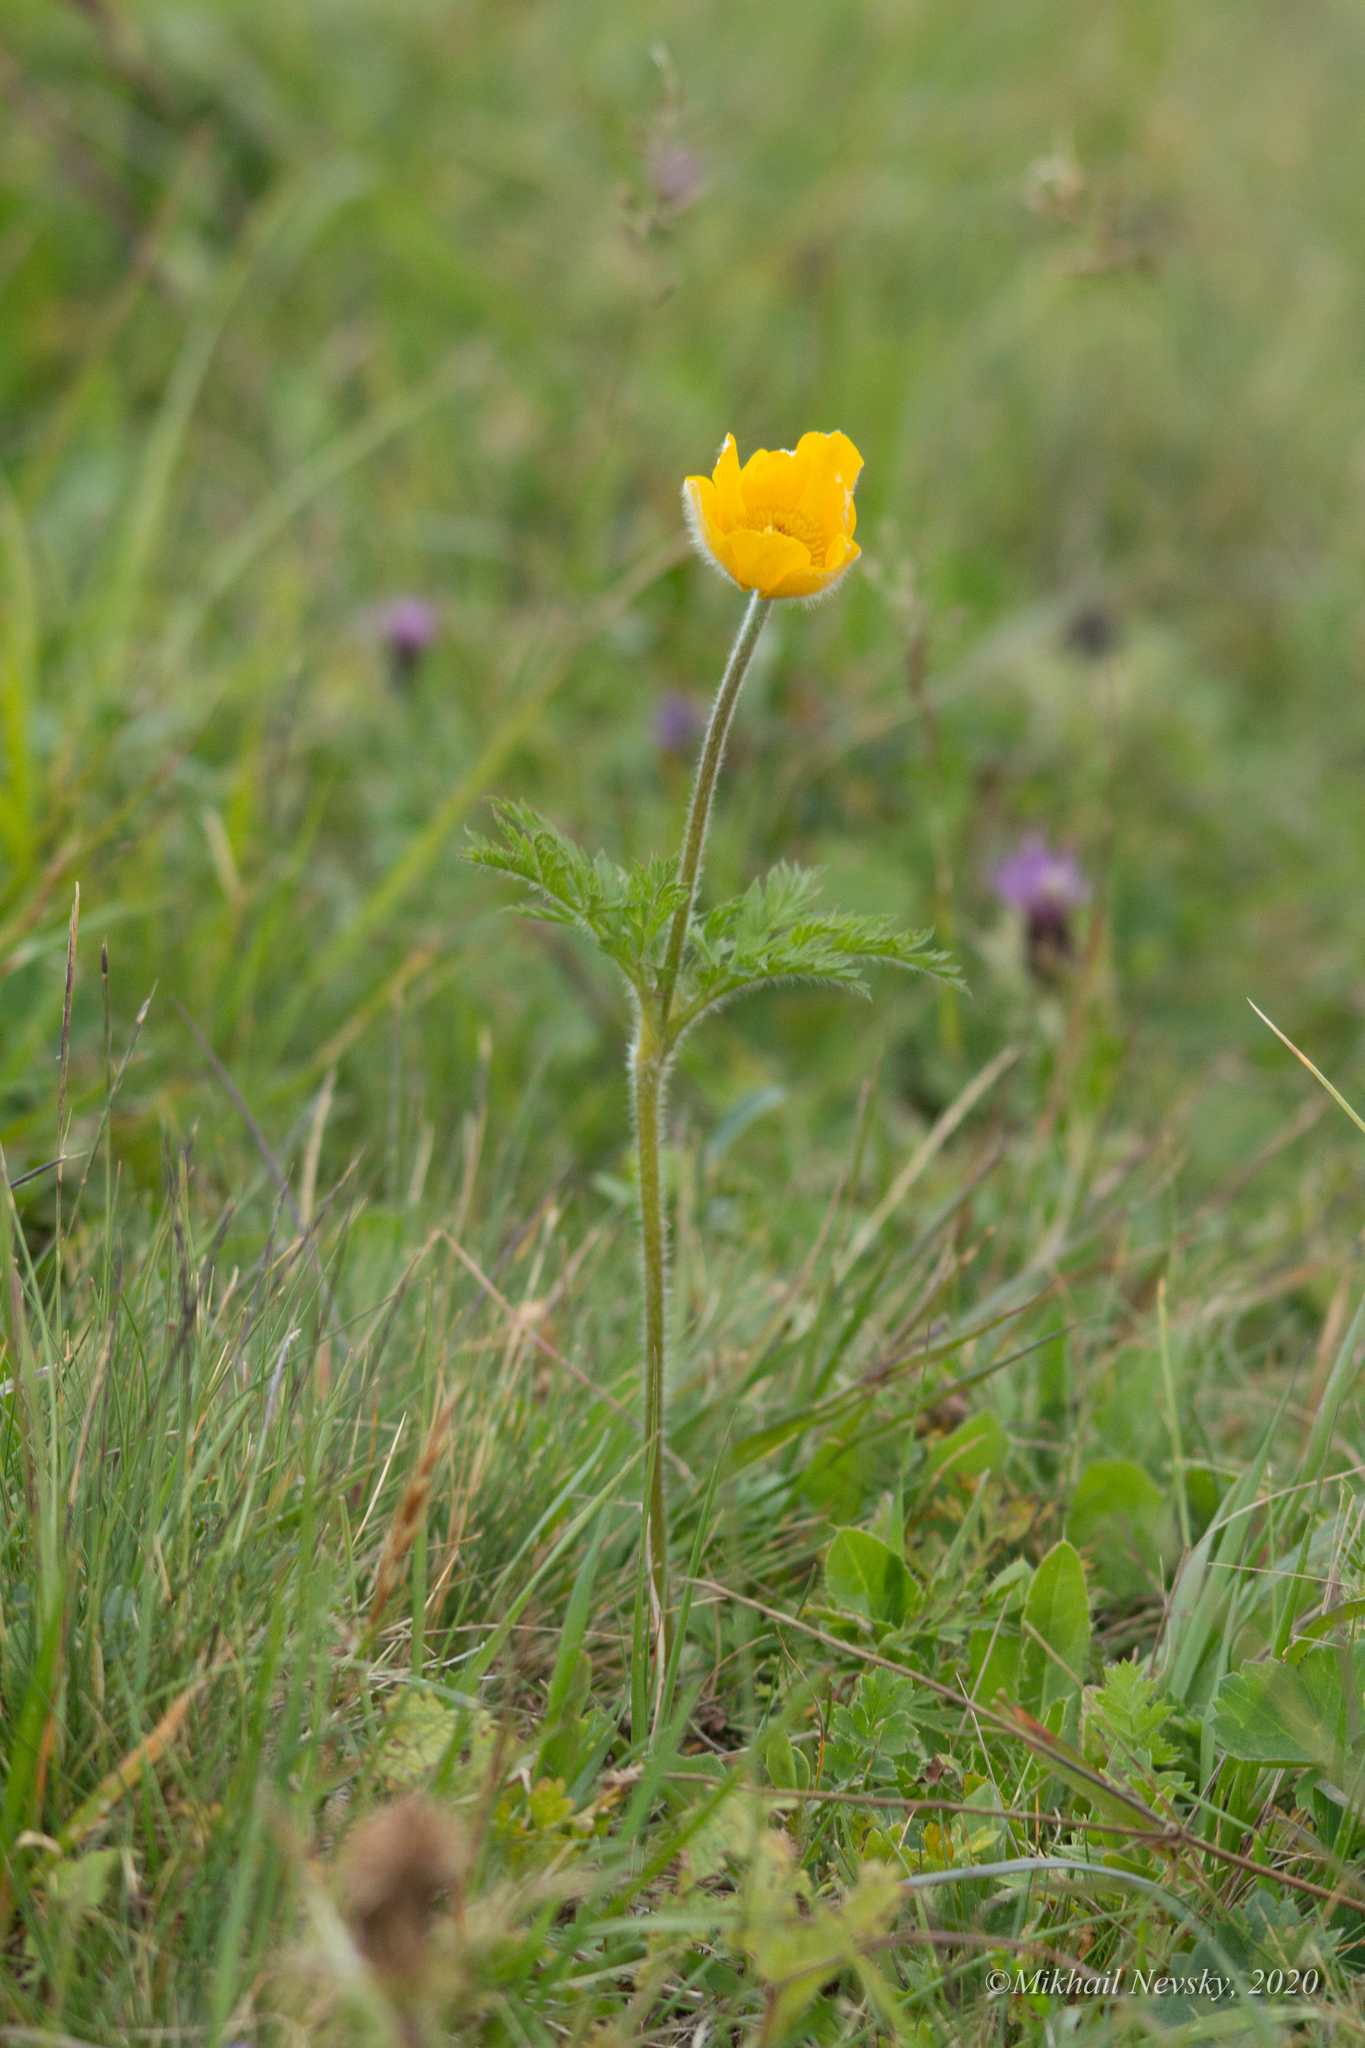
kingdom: Plantae
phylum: Tracheophyta
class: Magnoliopsida
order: Ranunculales
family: Ranunculaceae
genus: Pulsatilla
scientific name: Pulsatilla aurea
